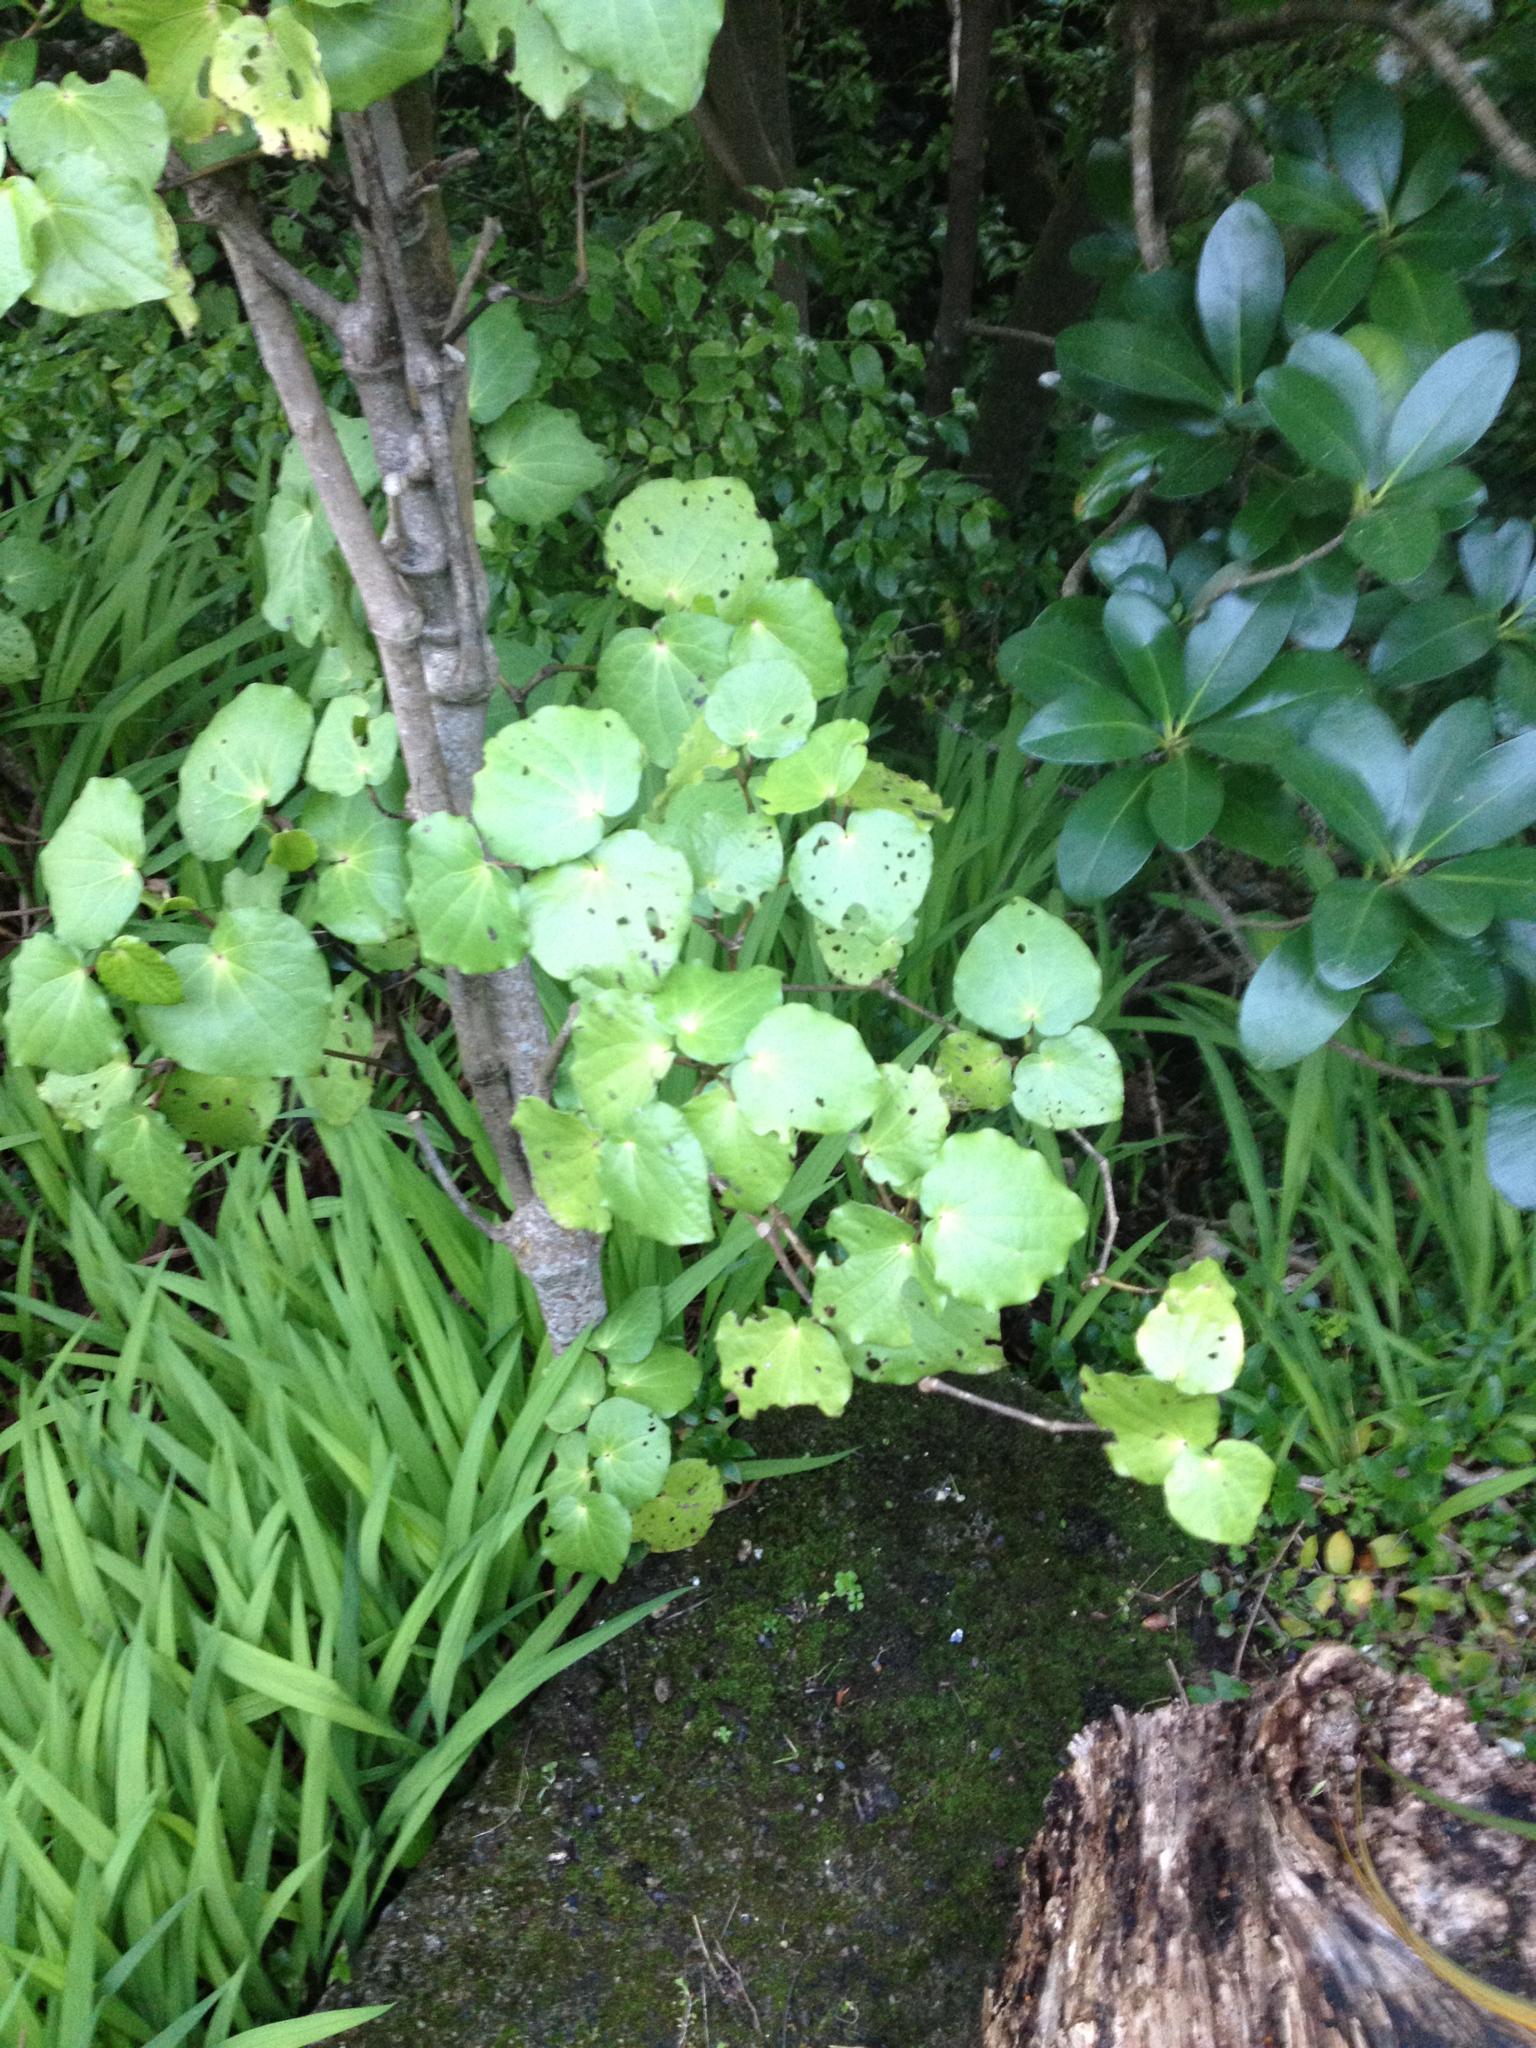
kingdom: Plantae
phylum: Tracheophyta
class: Magnoliopsida
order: Piperales
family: Piperaceae
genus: Macropiper
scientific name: Macropiper excelsum
